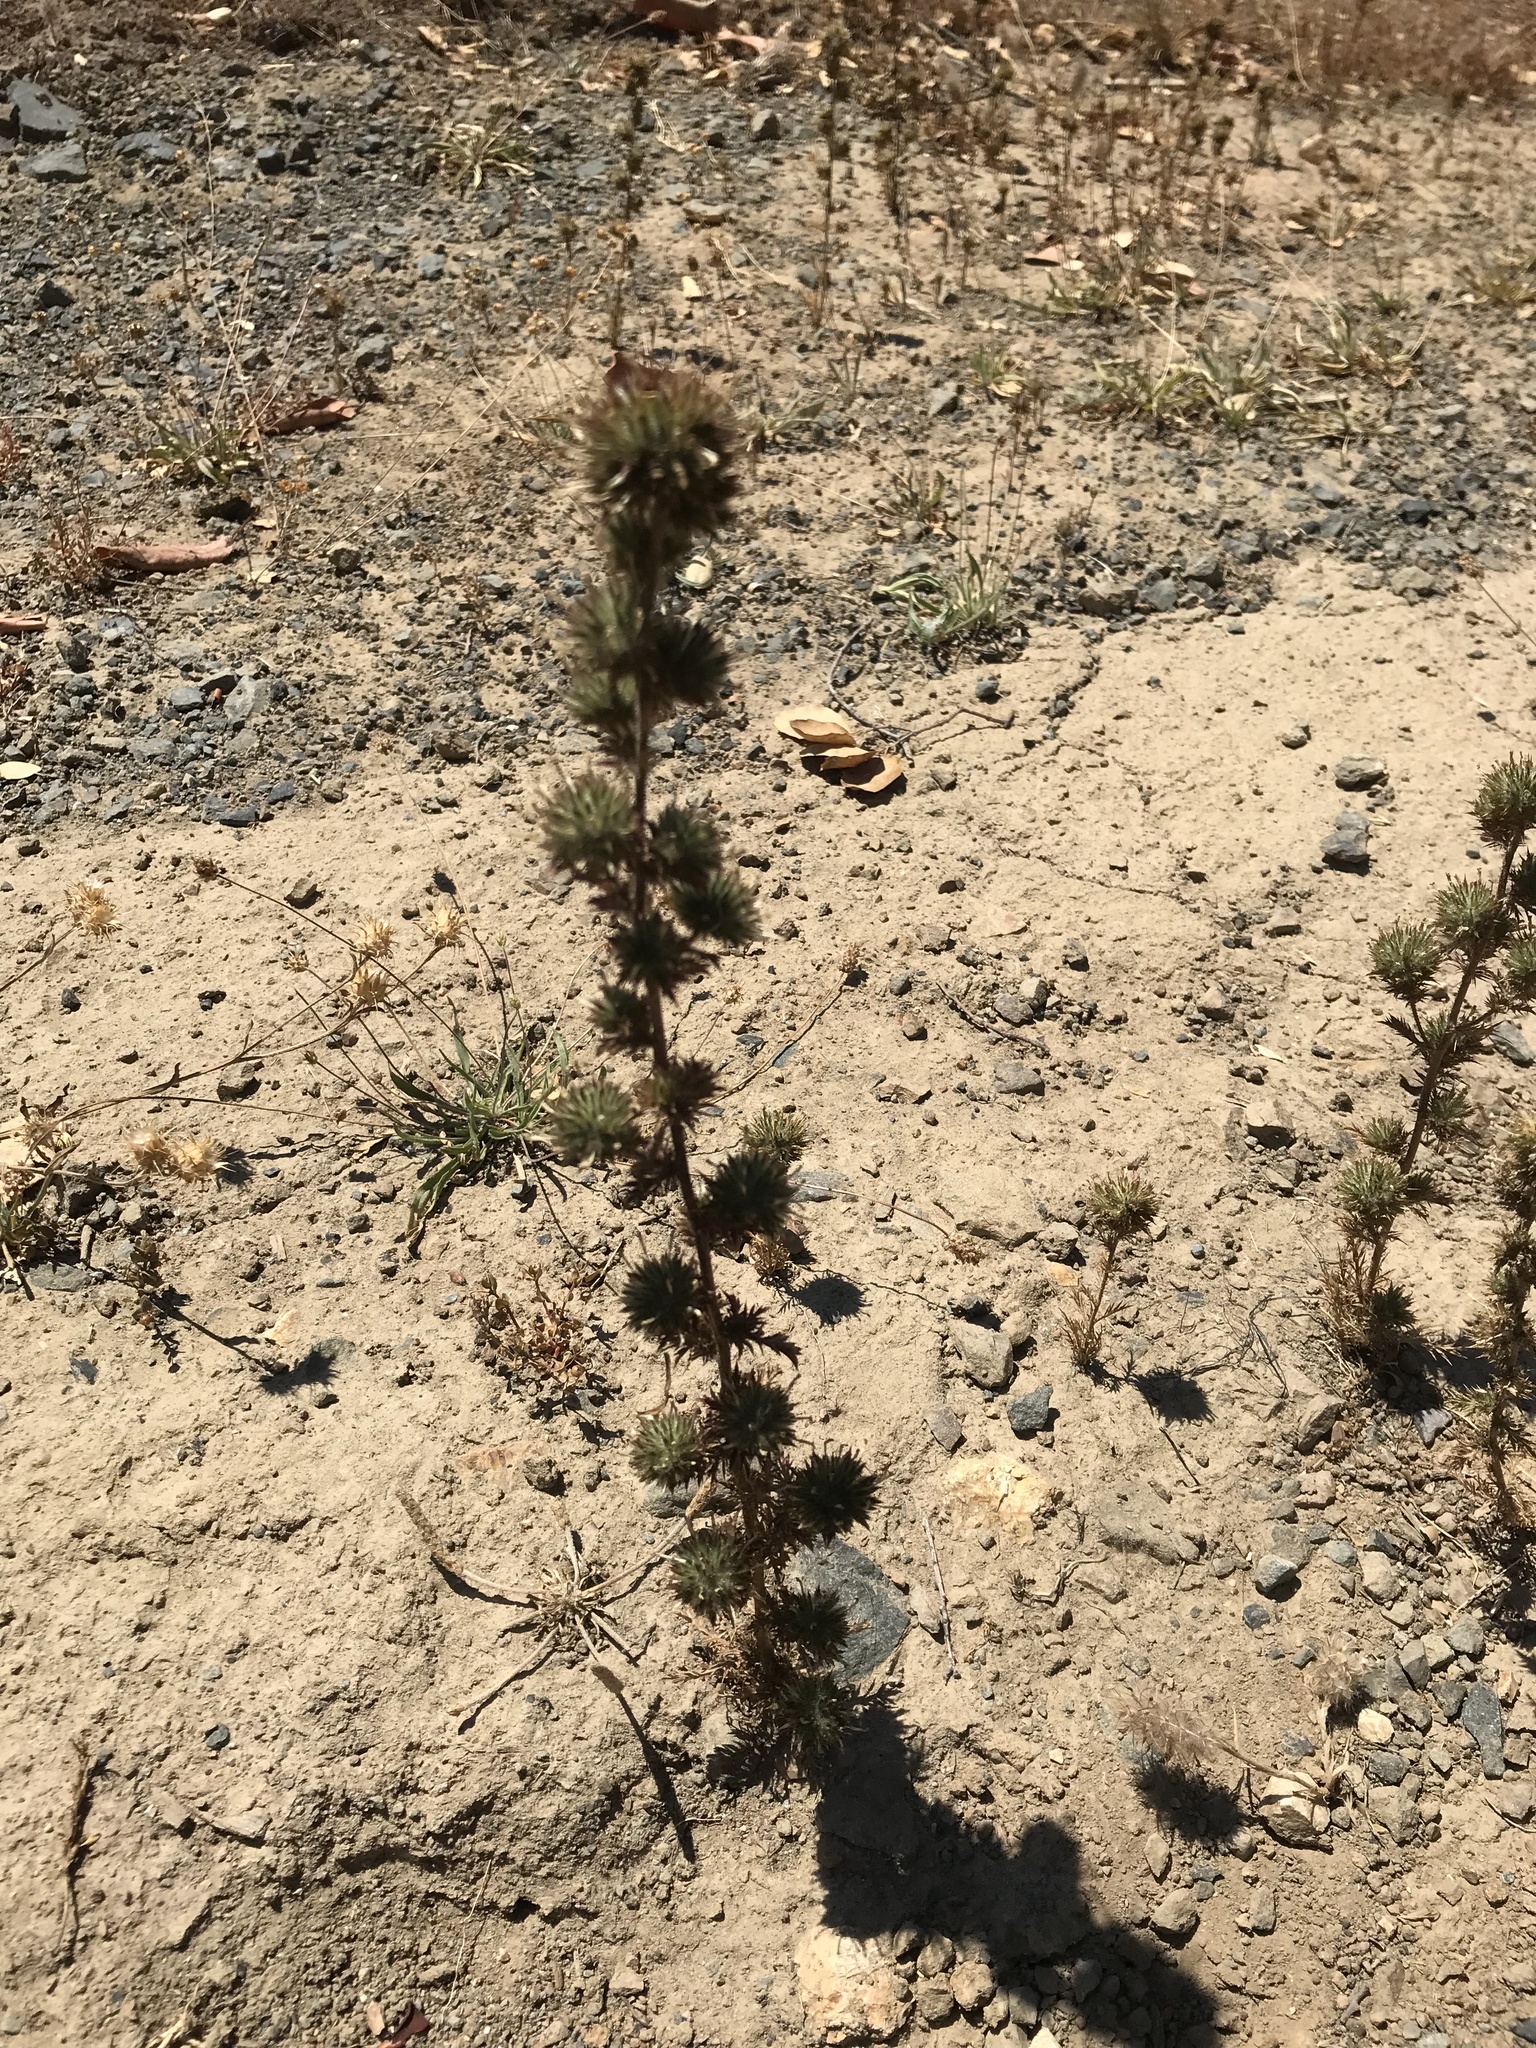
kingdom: Plantae
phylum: Tracheophyta
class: Magnoliopsida
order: Ericales
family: Polemoniaceae
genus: Navarretia
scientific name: Navarretia squarrosa
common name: Skunkweed
